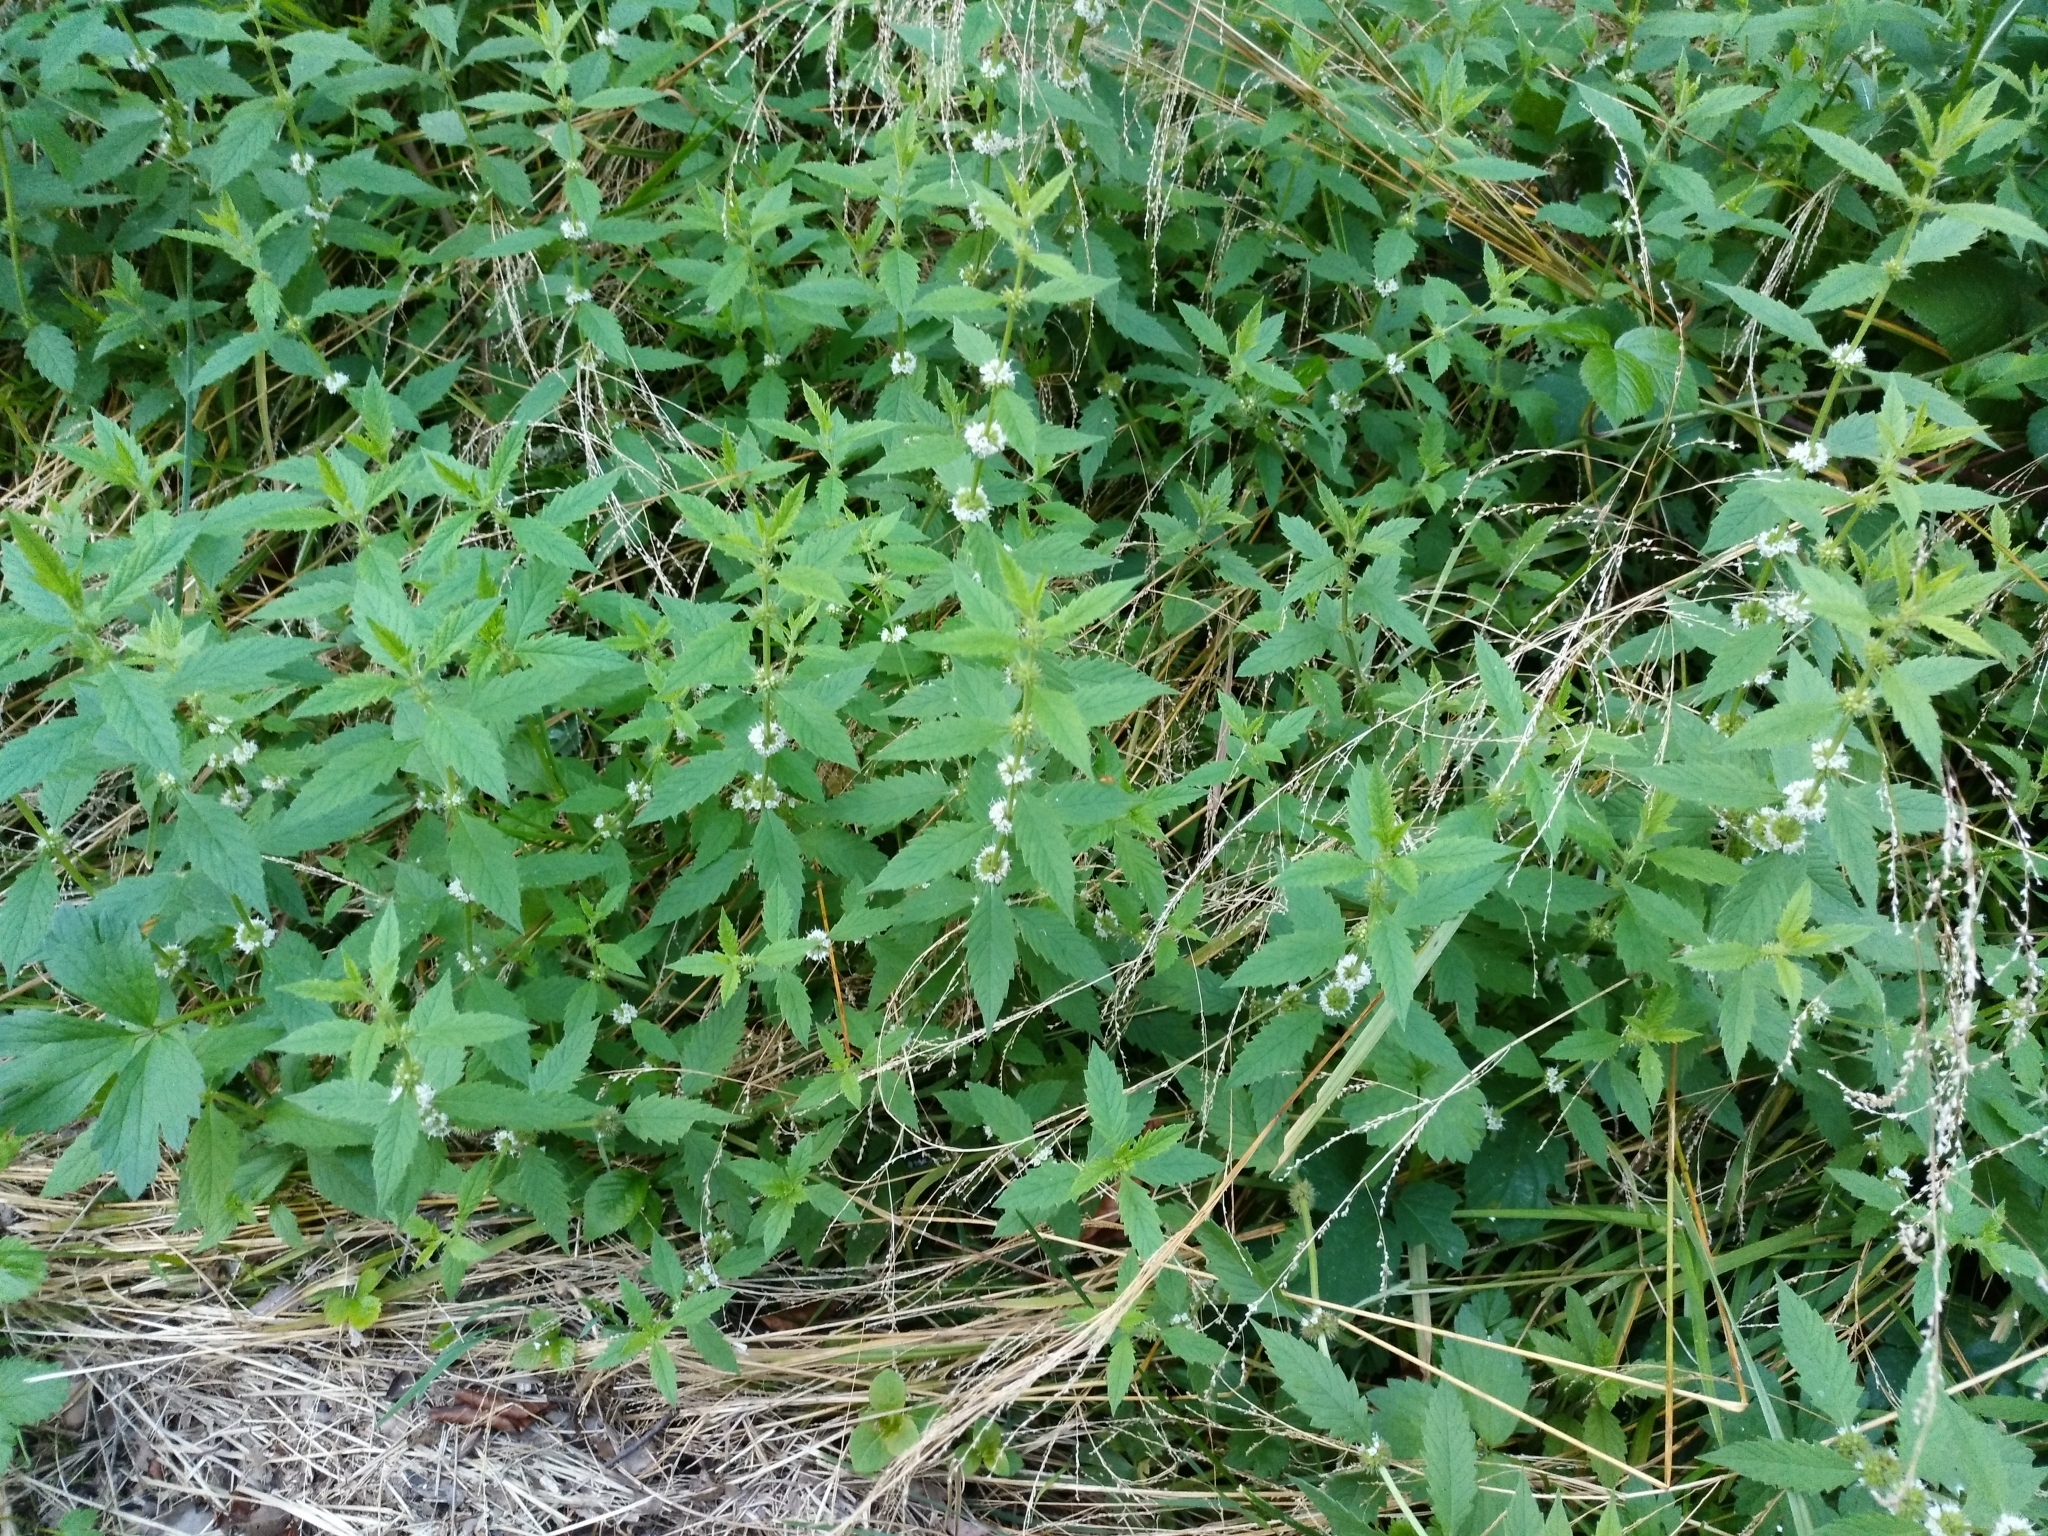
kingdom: Plantae
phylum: Tracheophyta
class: Magnoliopsida
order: Lamiales
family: Lamiaceae
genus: Lycopus
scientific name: Lycopus europaeus
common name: European bugleweed
